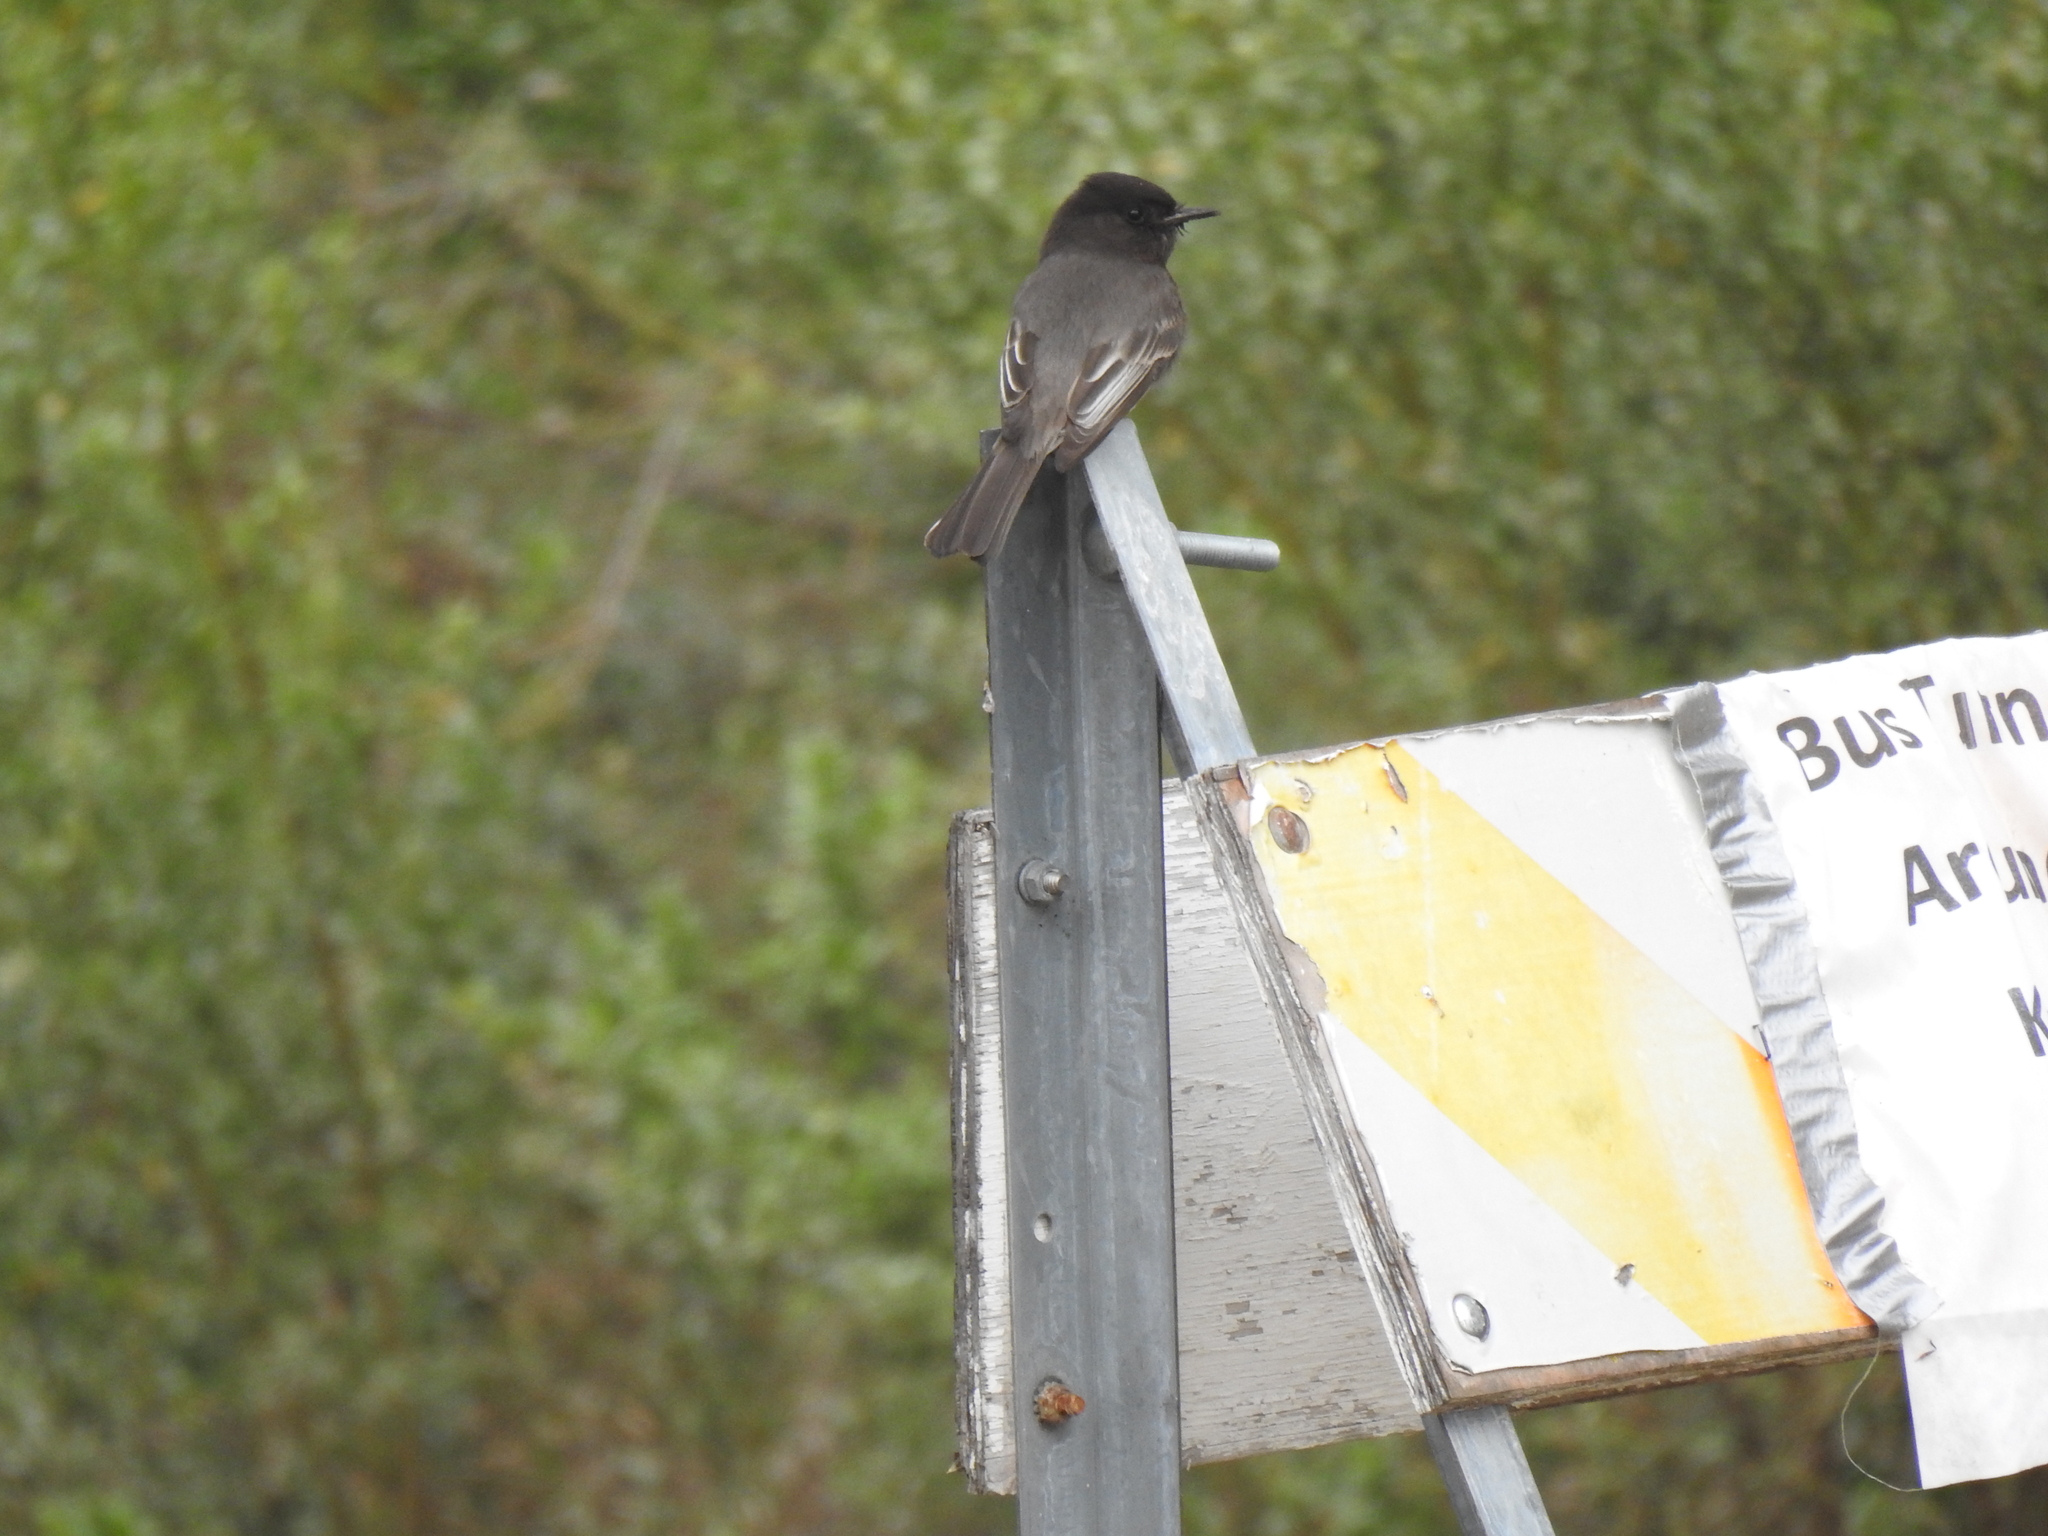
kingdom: Animalia
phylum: Chordata
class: Aves
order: Passeriformes
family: Tyrannidae
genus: Sayornis
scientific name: Sayornis nigricans
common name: Black phoebe
